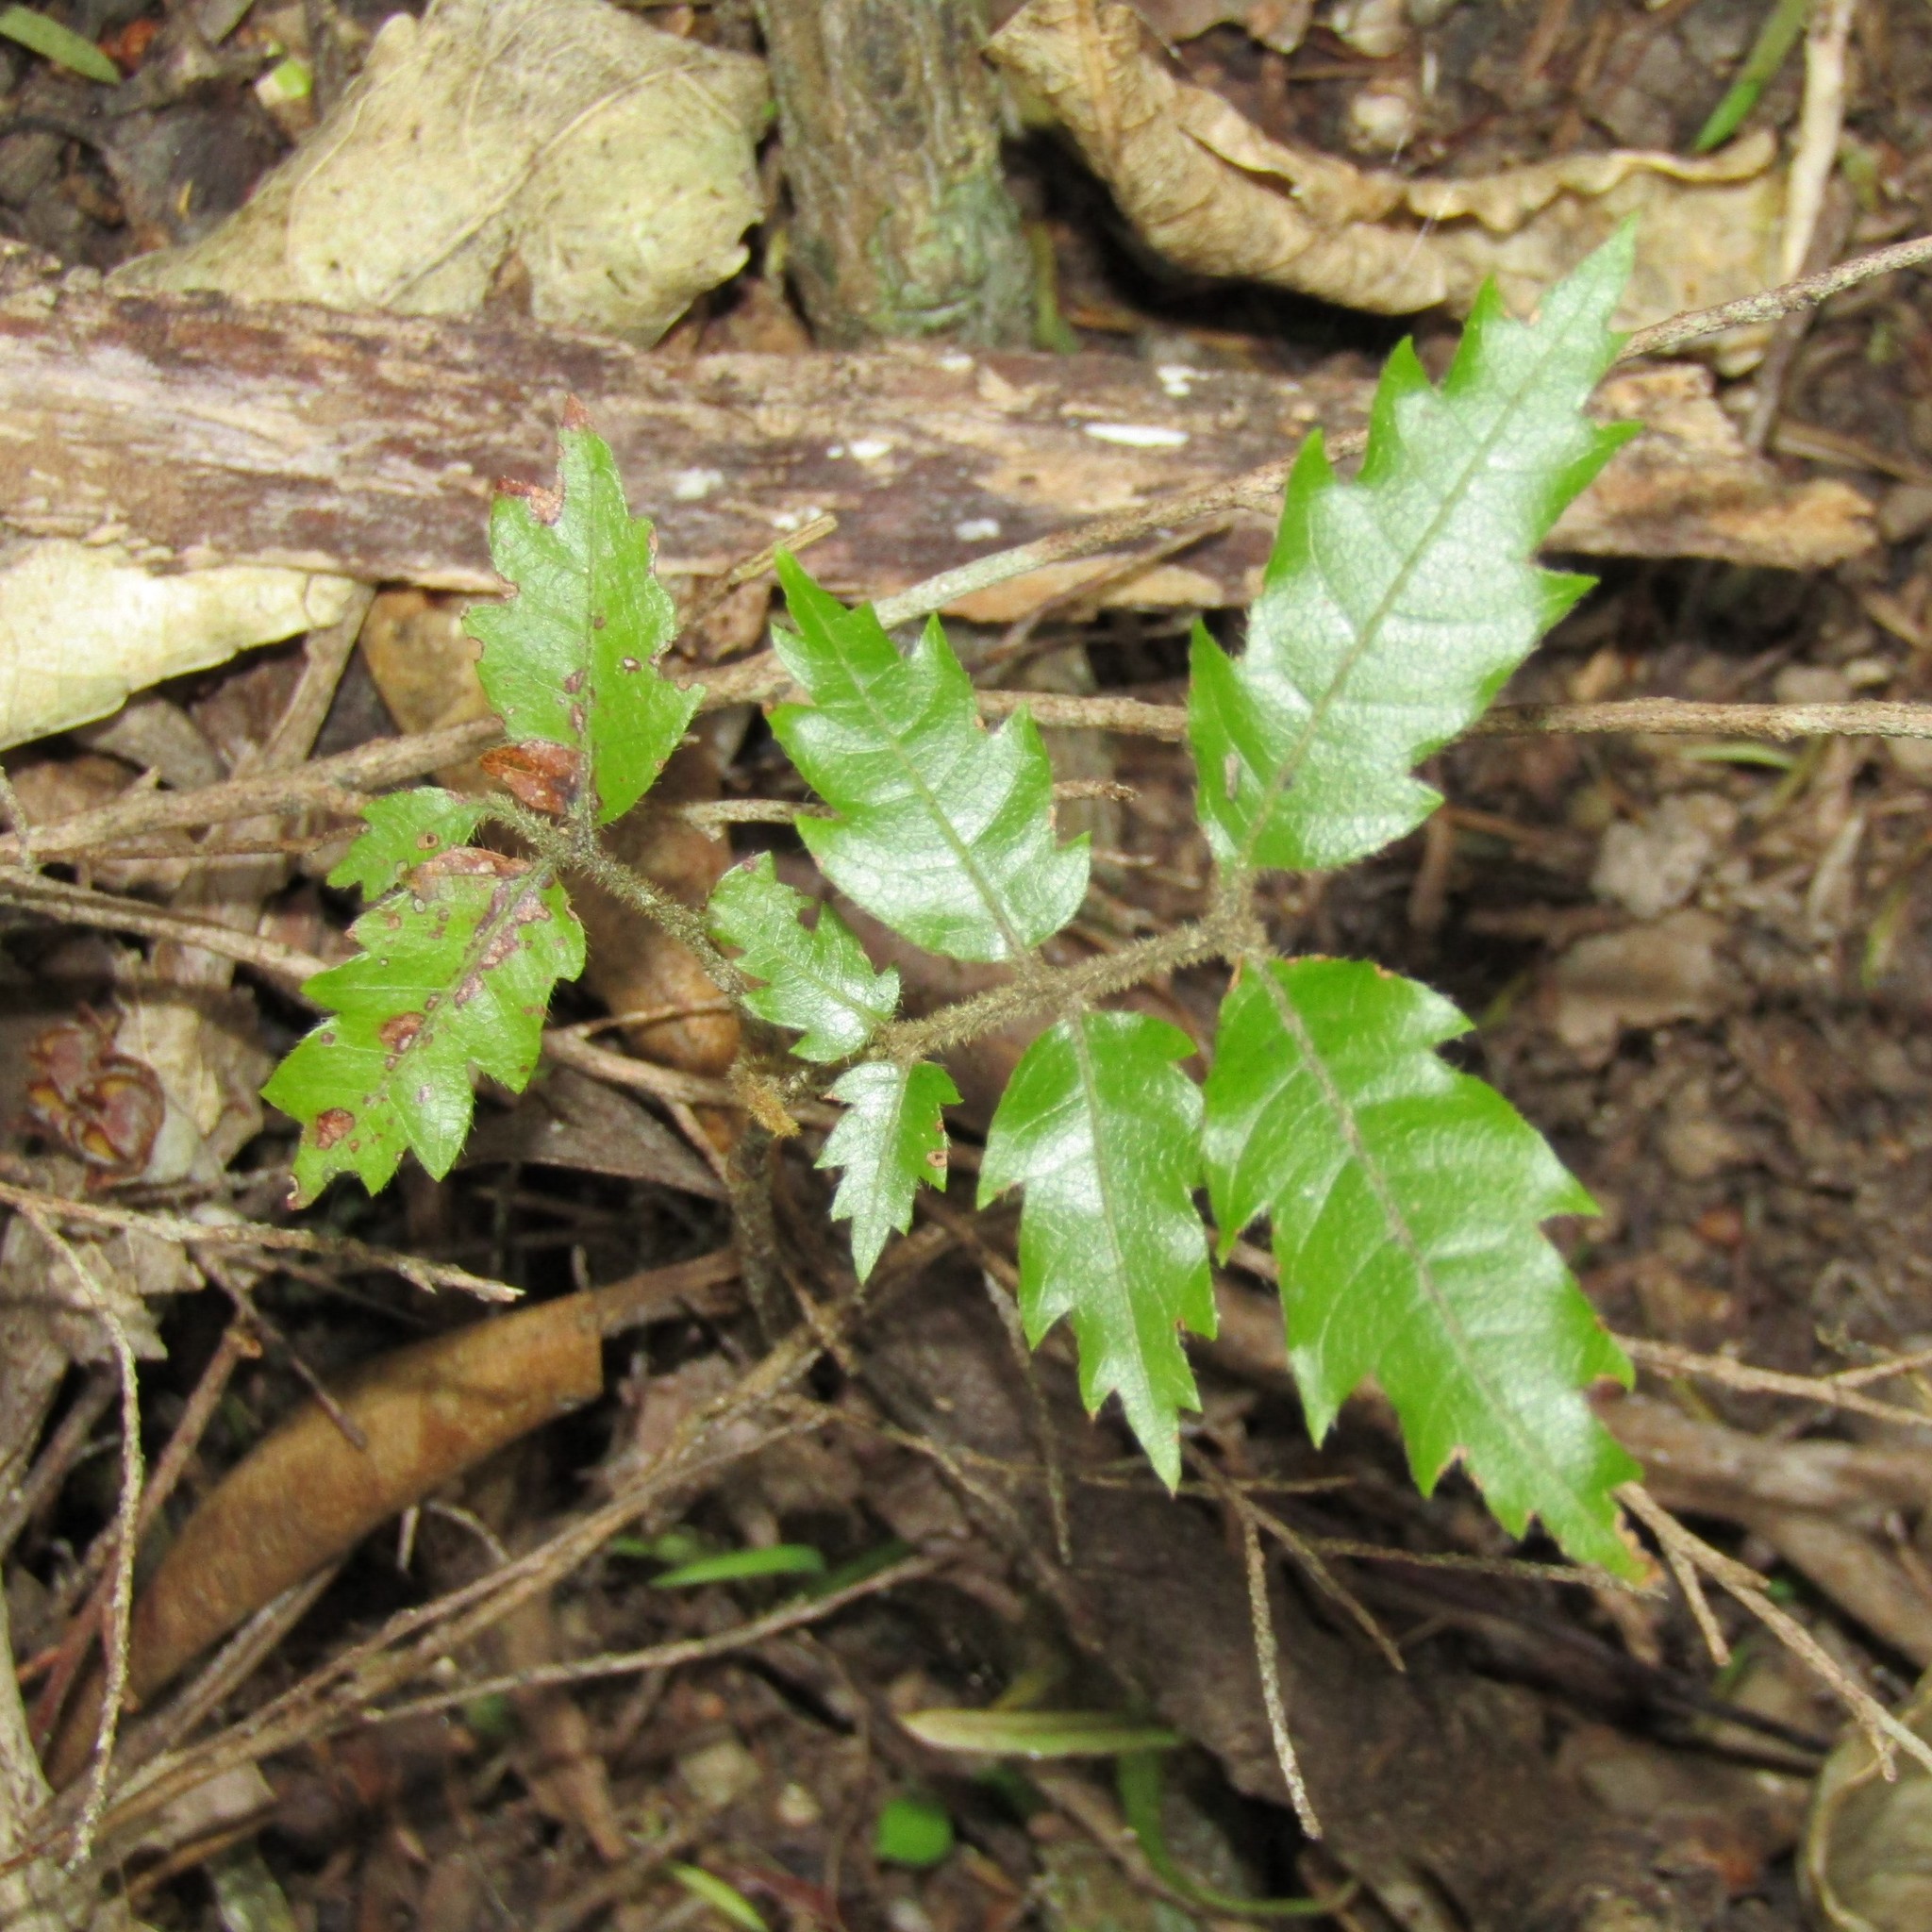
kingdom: Plantae
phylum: Tracheophyta
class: Magnoliopsida
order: Sapindales
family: Sapindaceae
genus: Alectryon
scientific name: Alectryon excelsus
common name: Three kings titoki
